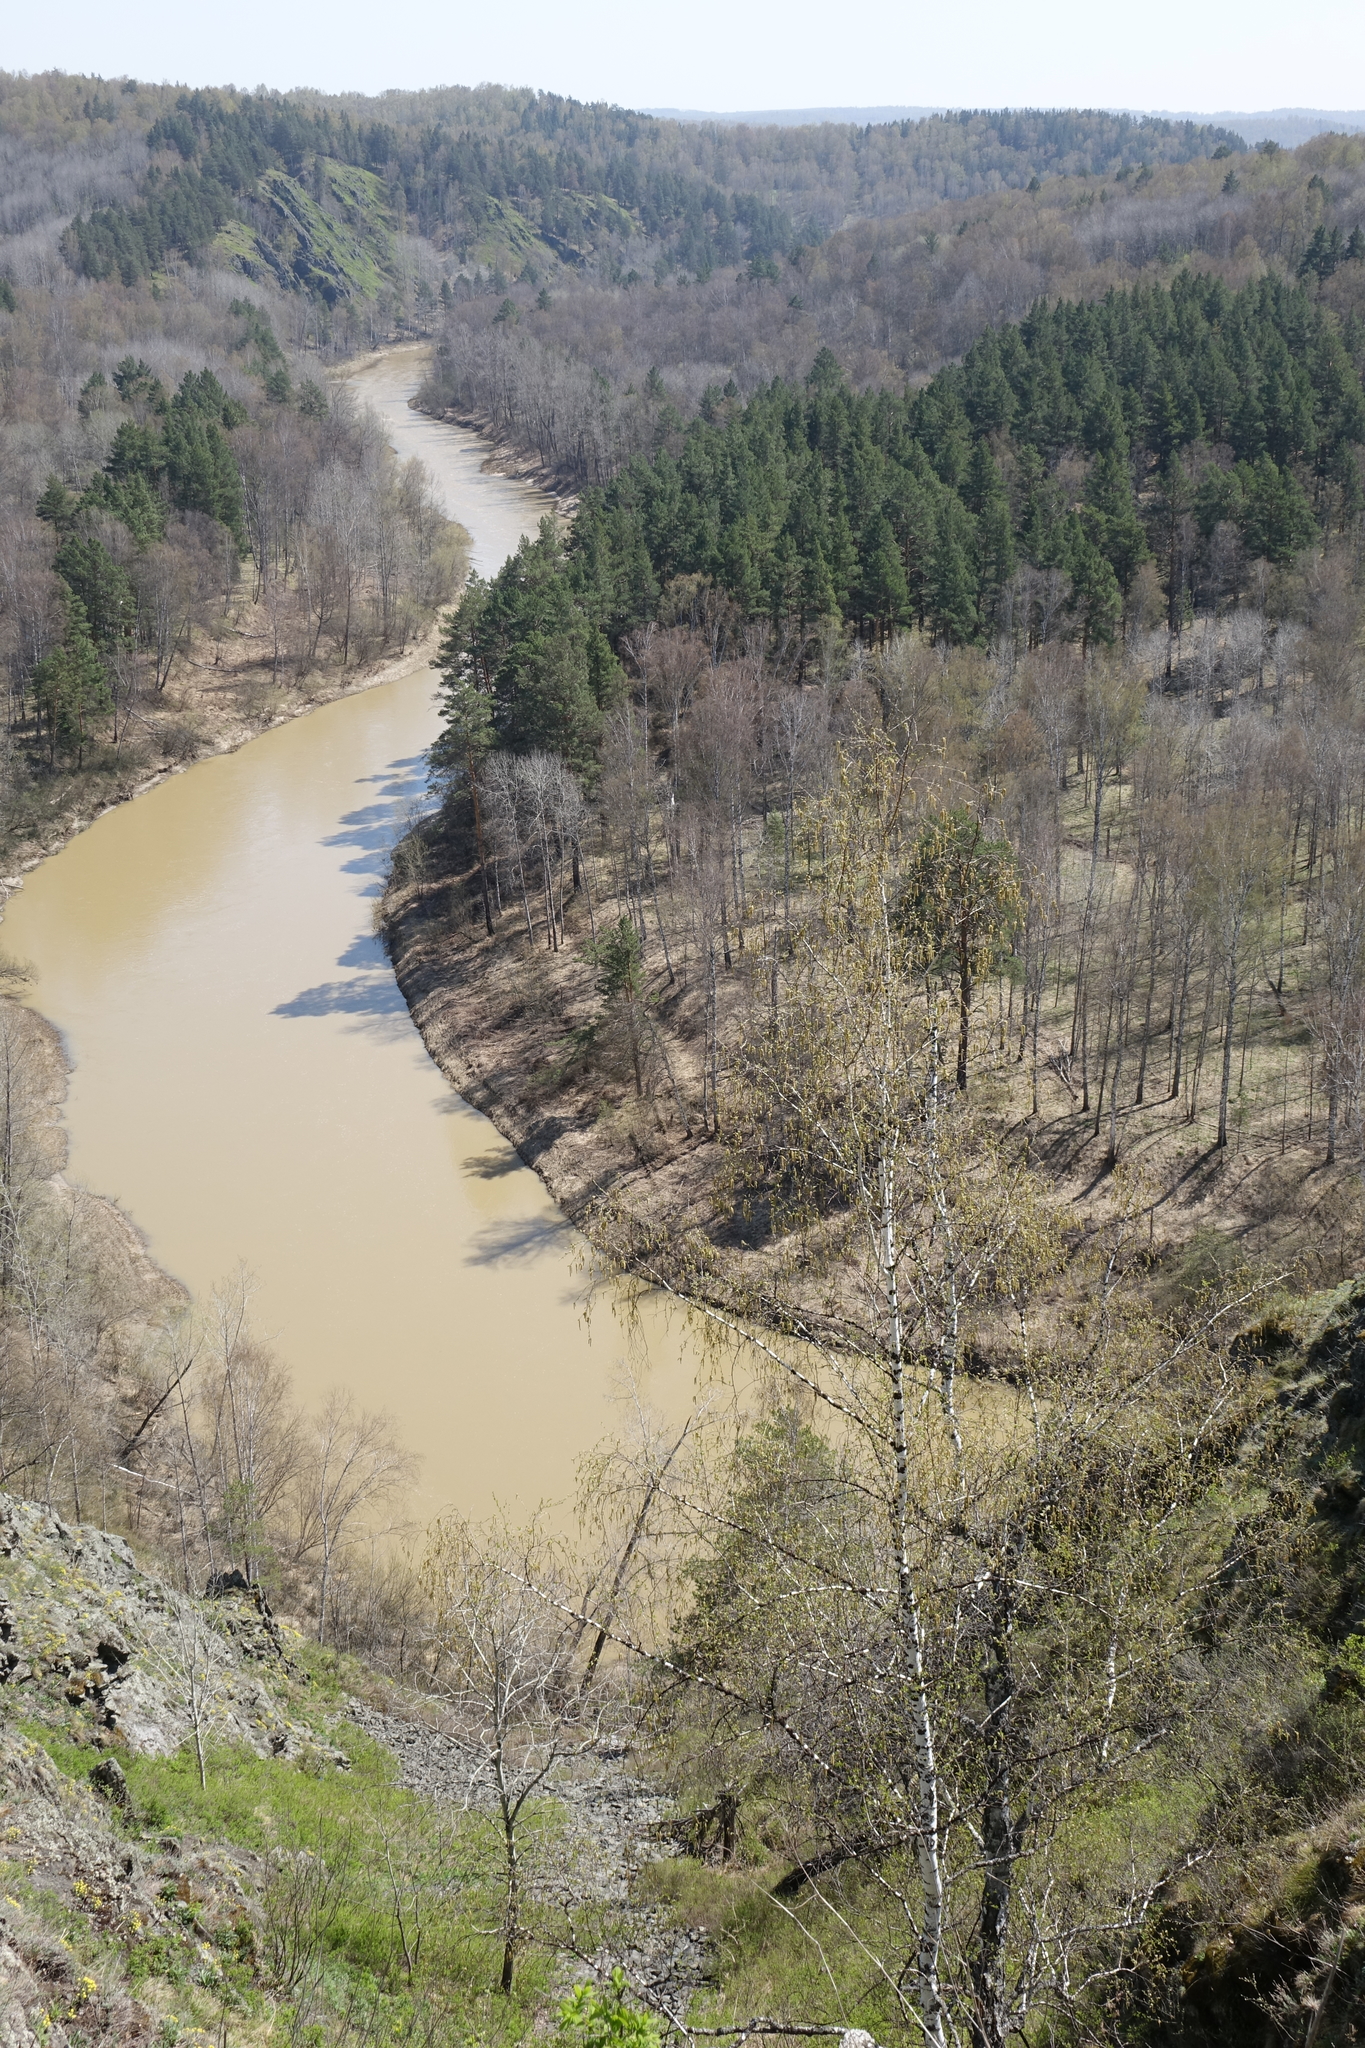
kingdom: Plantae
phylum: Tracheophyta
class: Pinopsida
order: Pinales
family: Pinaceae
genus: Pinus
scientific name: Pinus sylvestris
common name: Scots pine
